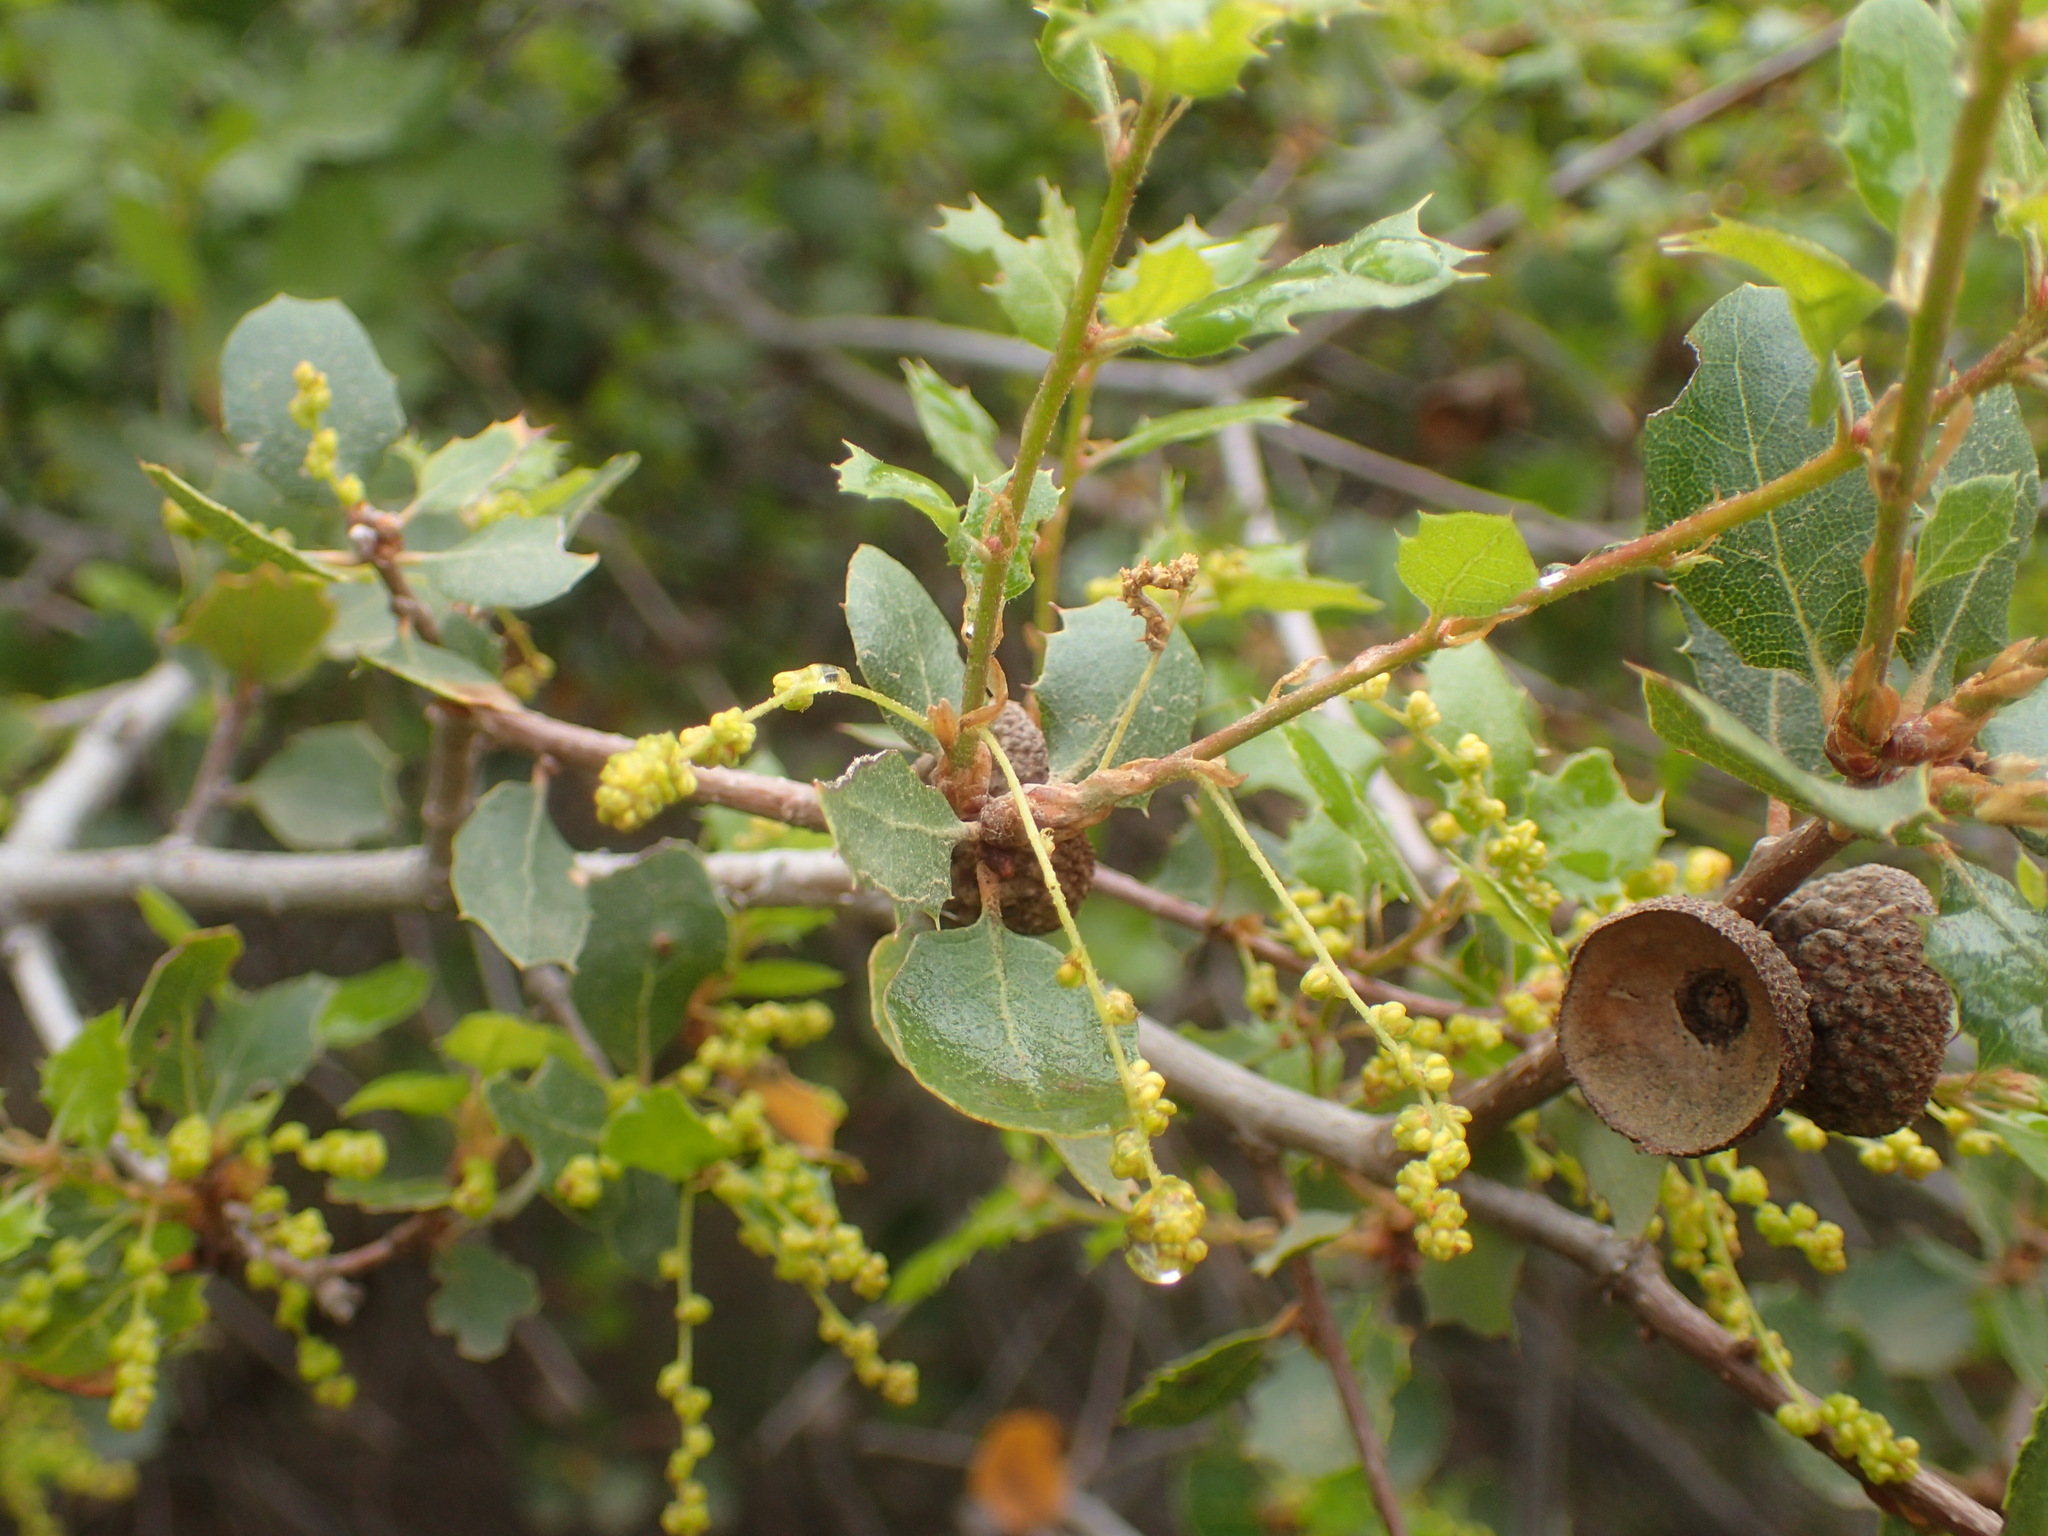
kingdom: Plantae
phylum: Tracheophyta
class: Magnoliopsida
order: Fagales
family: Fagaceae
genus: Quercus
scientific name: Quercus berberidifolia
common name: California scrub oak
